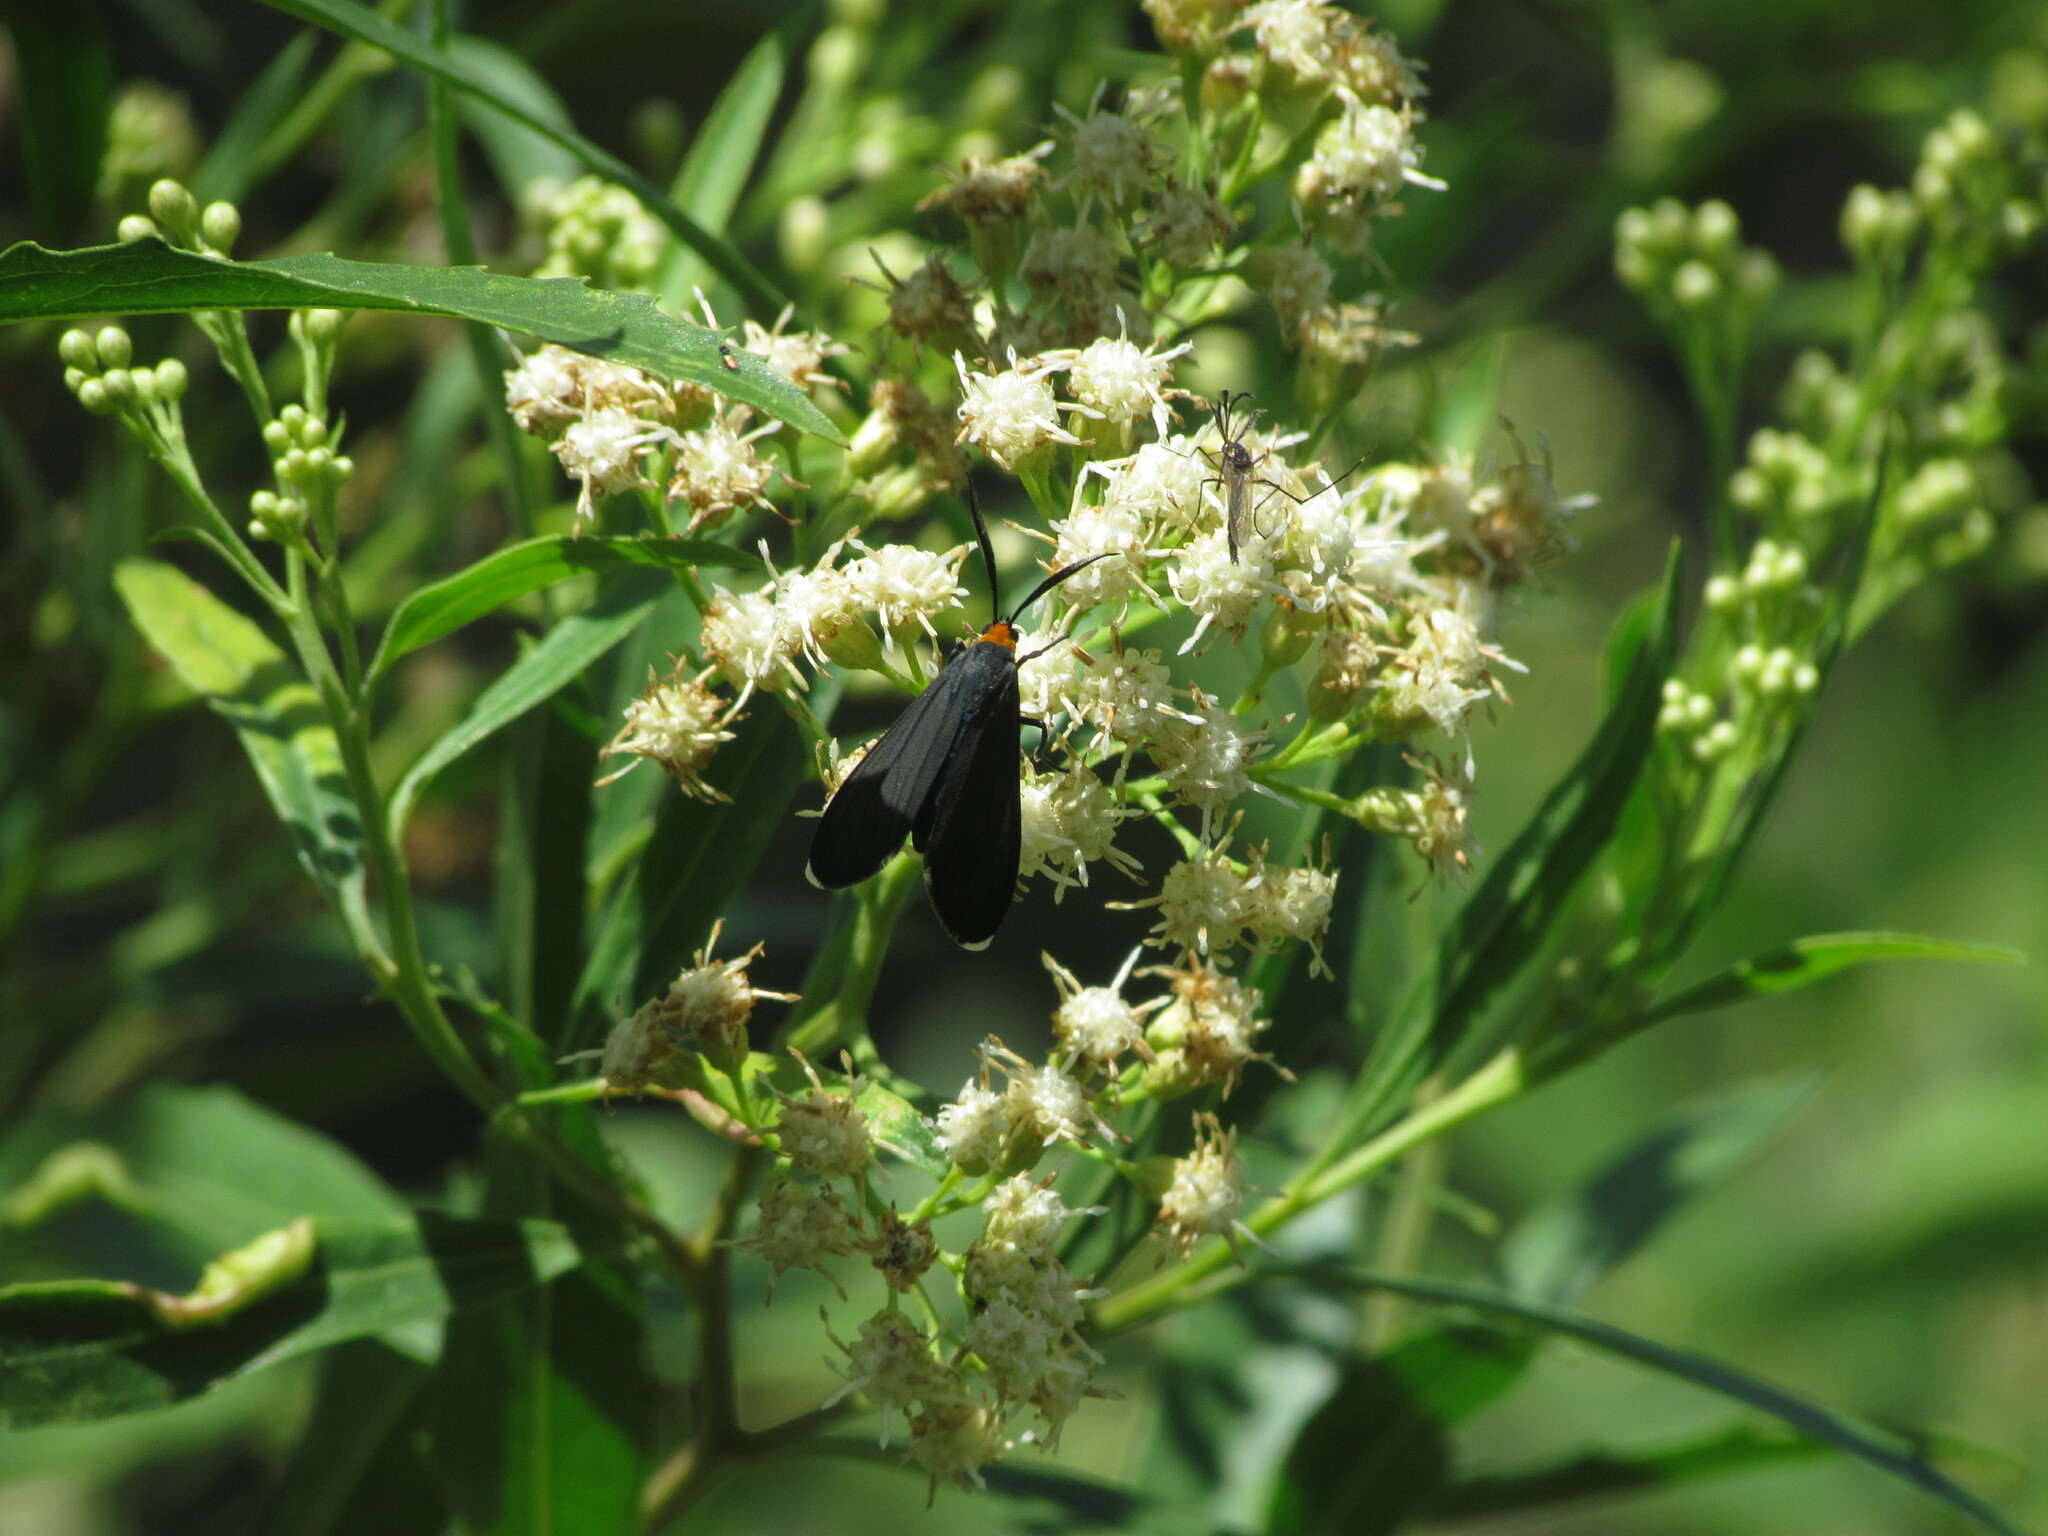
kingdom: Animalia
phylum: Arthropoda
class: Insecta
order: Lepidoptera
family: Erebidae
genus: Ctenucha
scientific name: Ctenucha rubriceps
